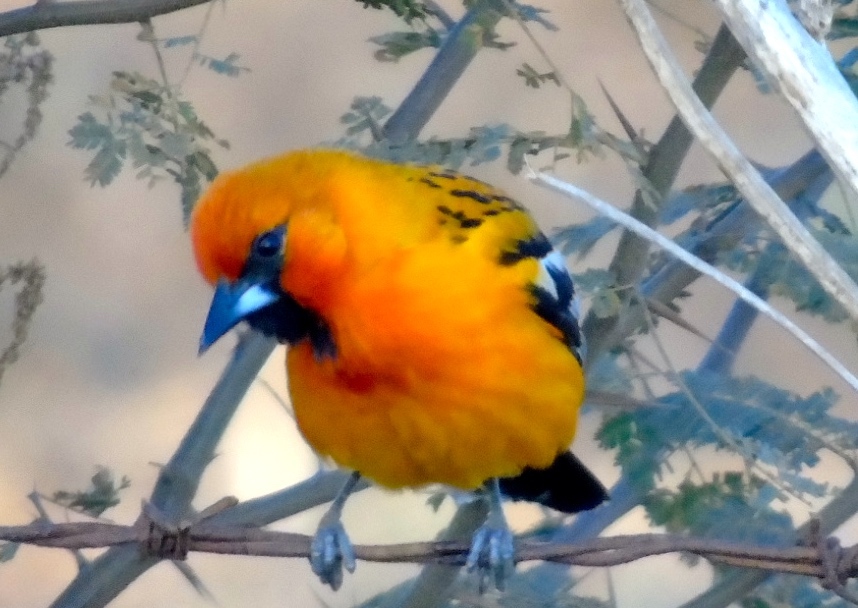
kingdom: Animalia
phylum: Chordata
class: Aves
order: Passeriformes
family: Icteridae
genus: Icterus
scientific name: Icterus pustulatus
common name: Streak-backed oriole
